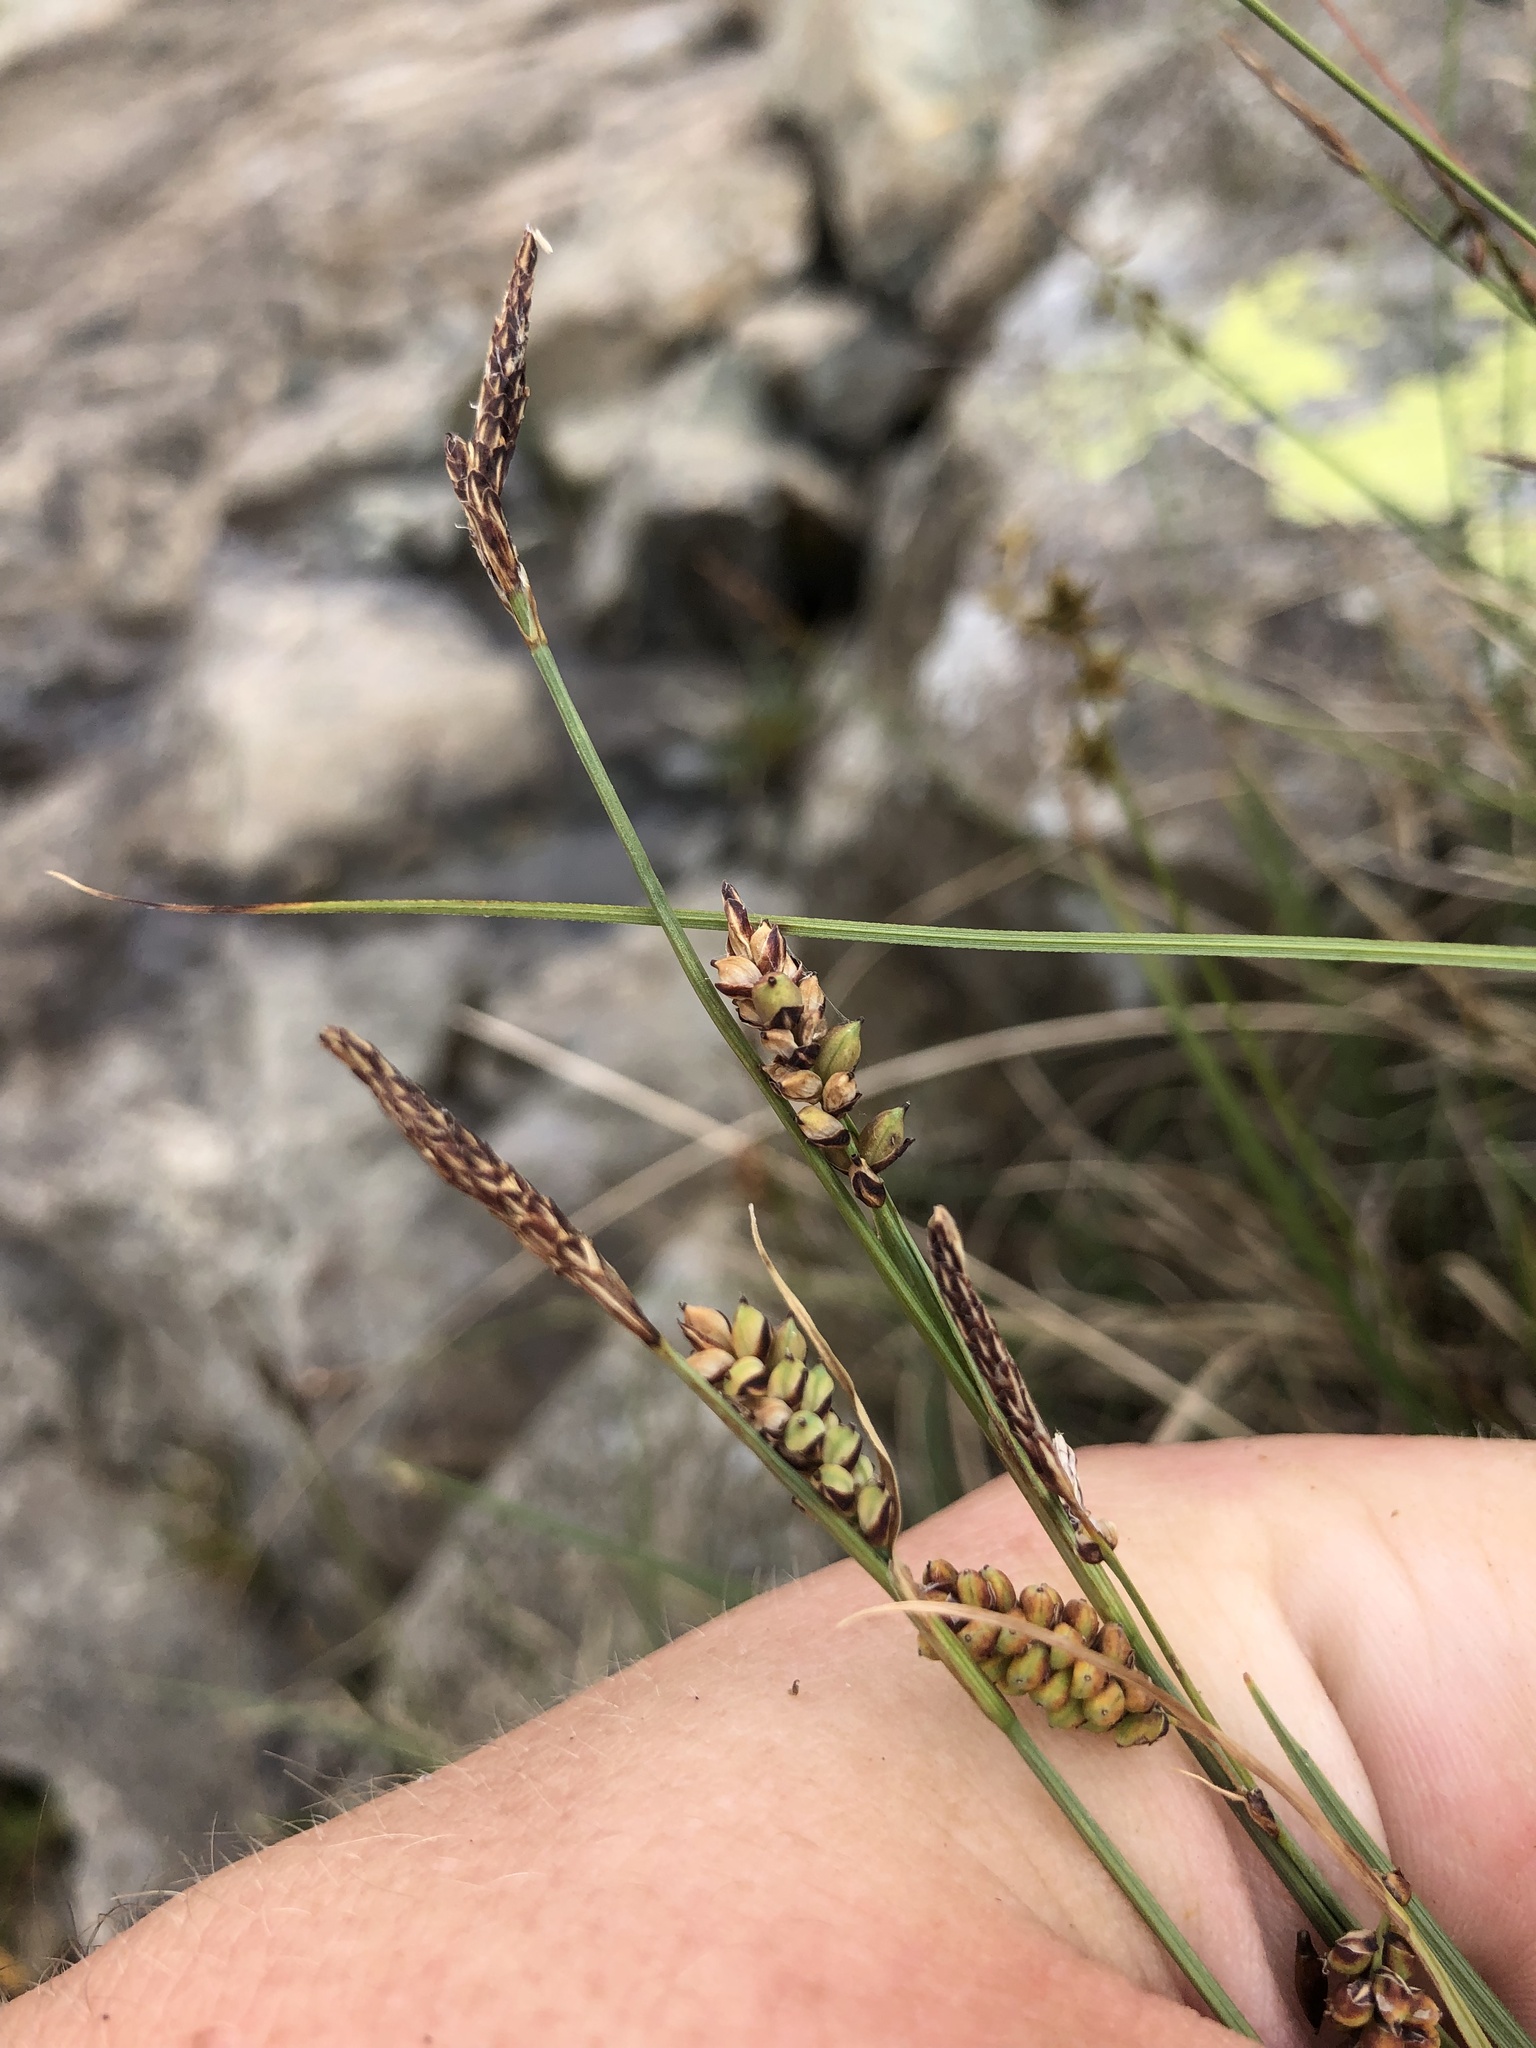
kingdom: Plantae
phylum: Tracheophyta
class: Liliopsida
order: Poales
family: Cyperaceae
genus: Carex
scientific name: Carex flacca
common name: Glaucous sedge
